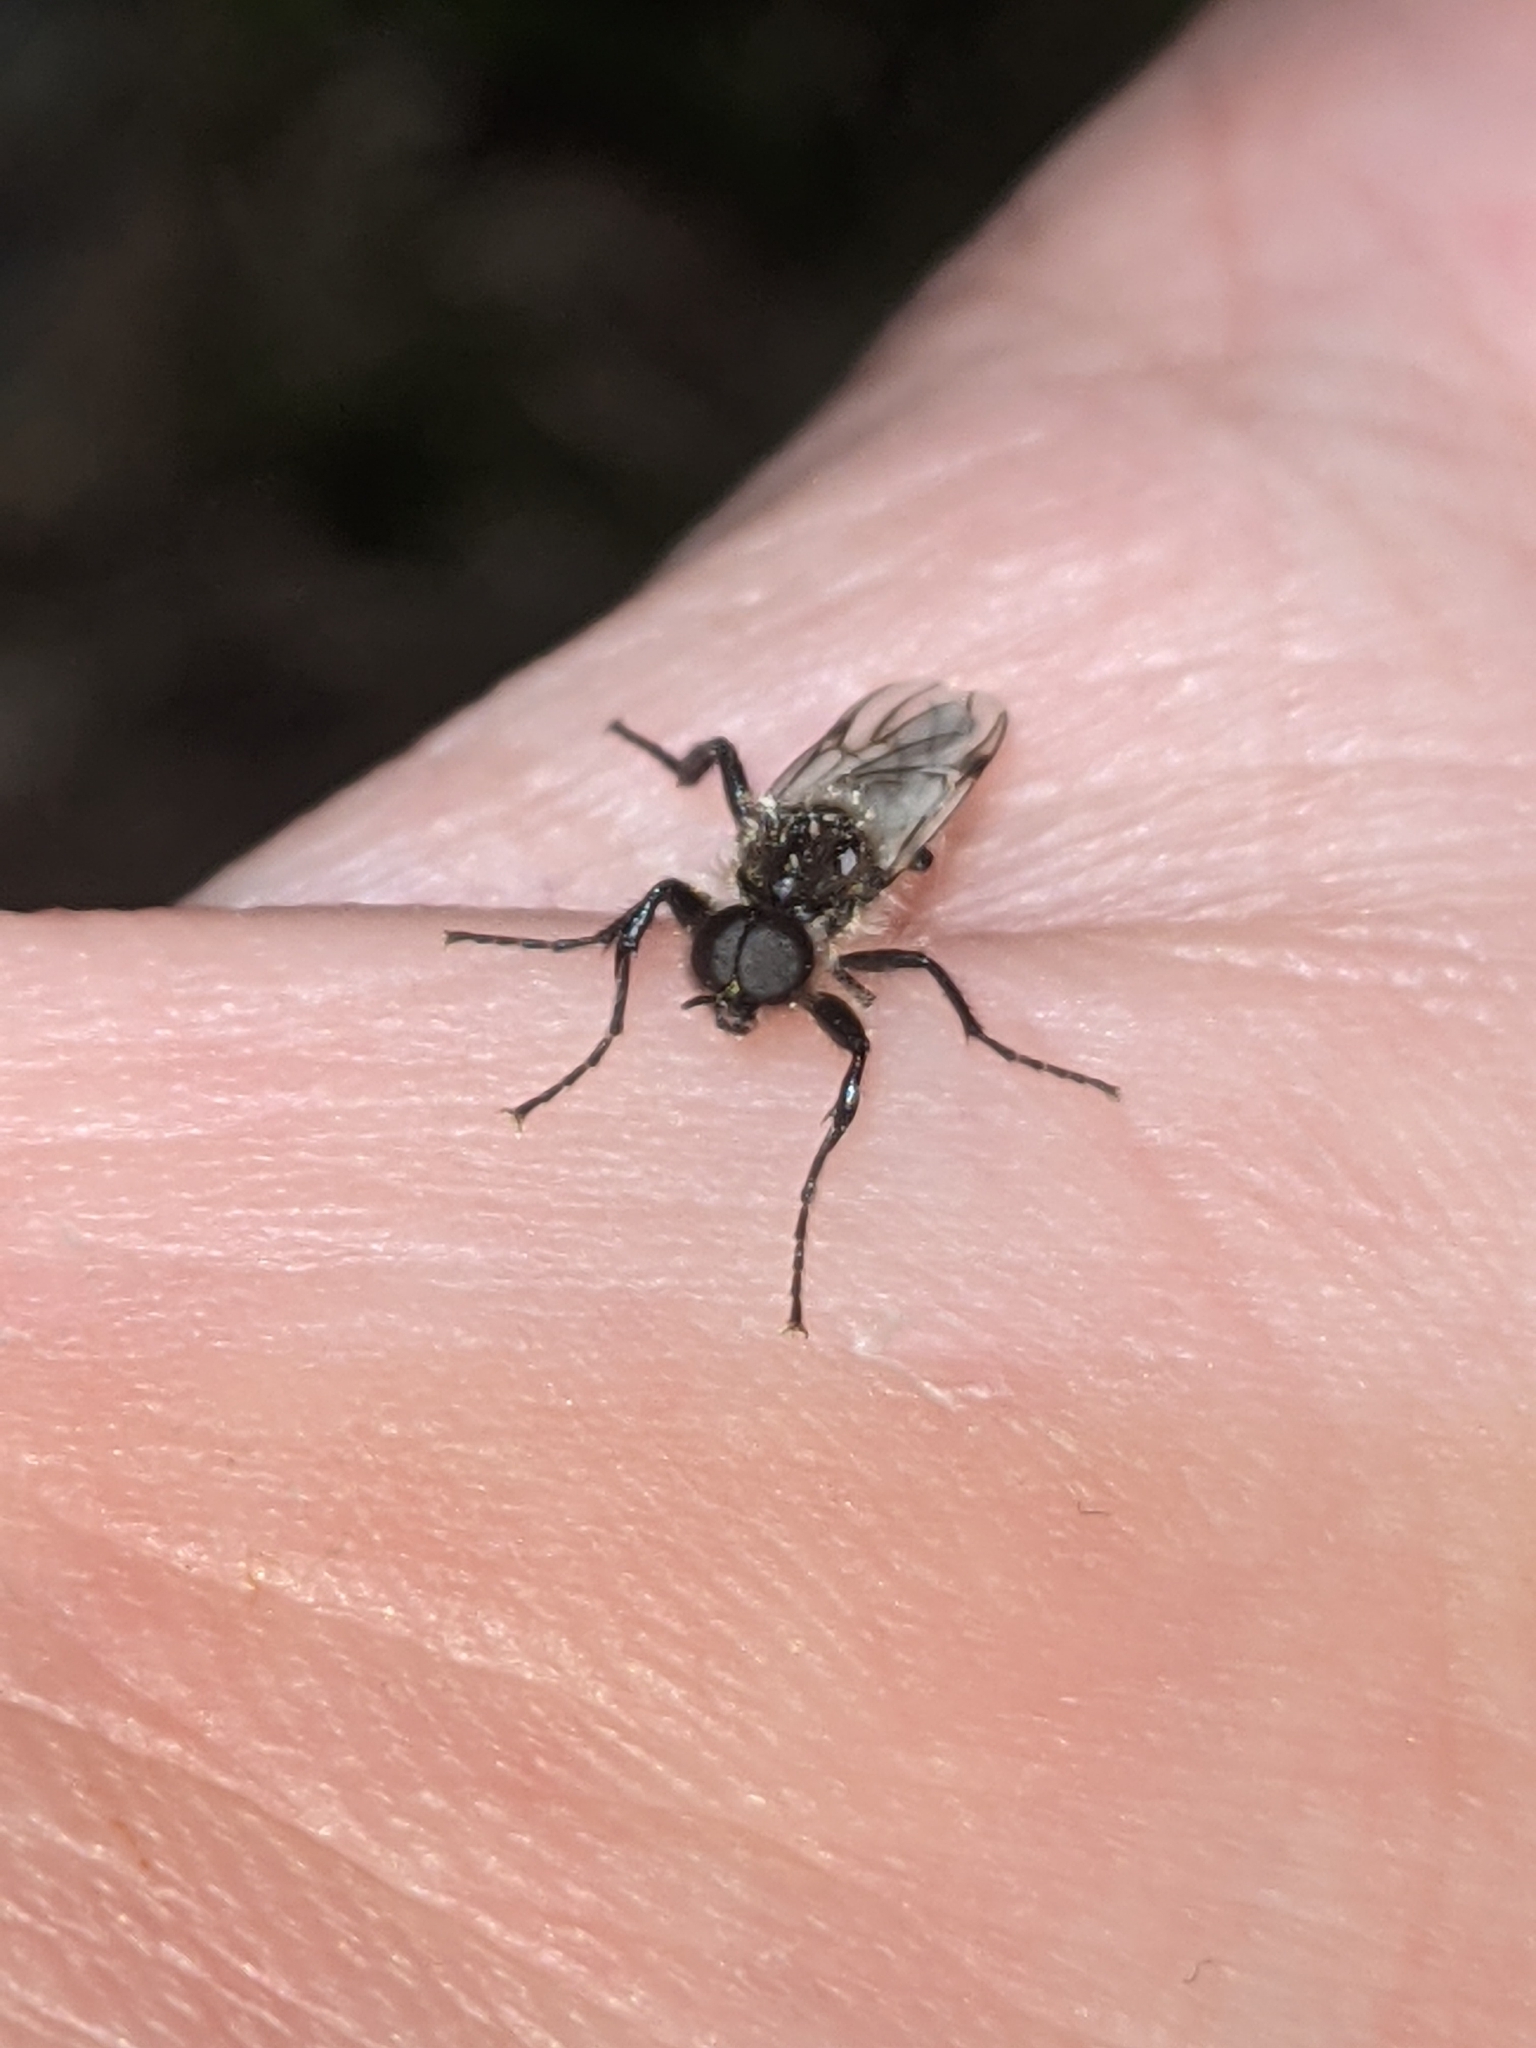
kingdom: Animalia
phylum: Arthropoda
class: Insecta
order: Diptera
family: Bibionidae
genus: Bibio
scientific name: Bibio albipennis
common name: White-winged march fly
